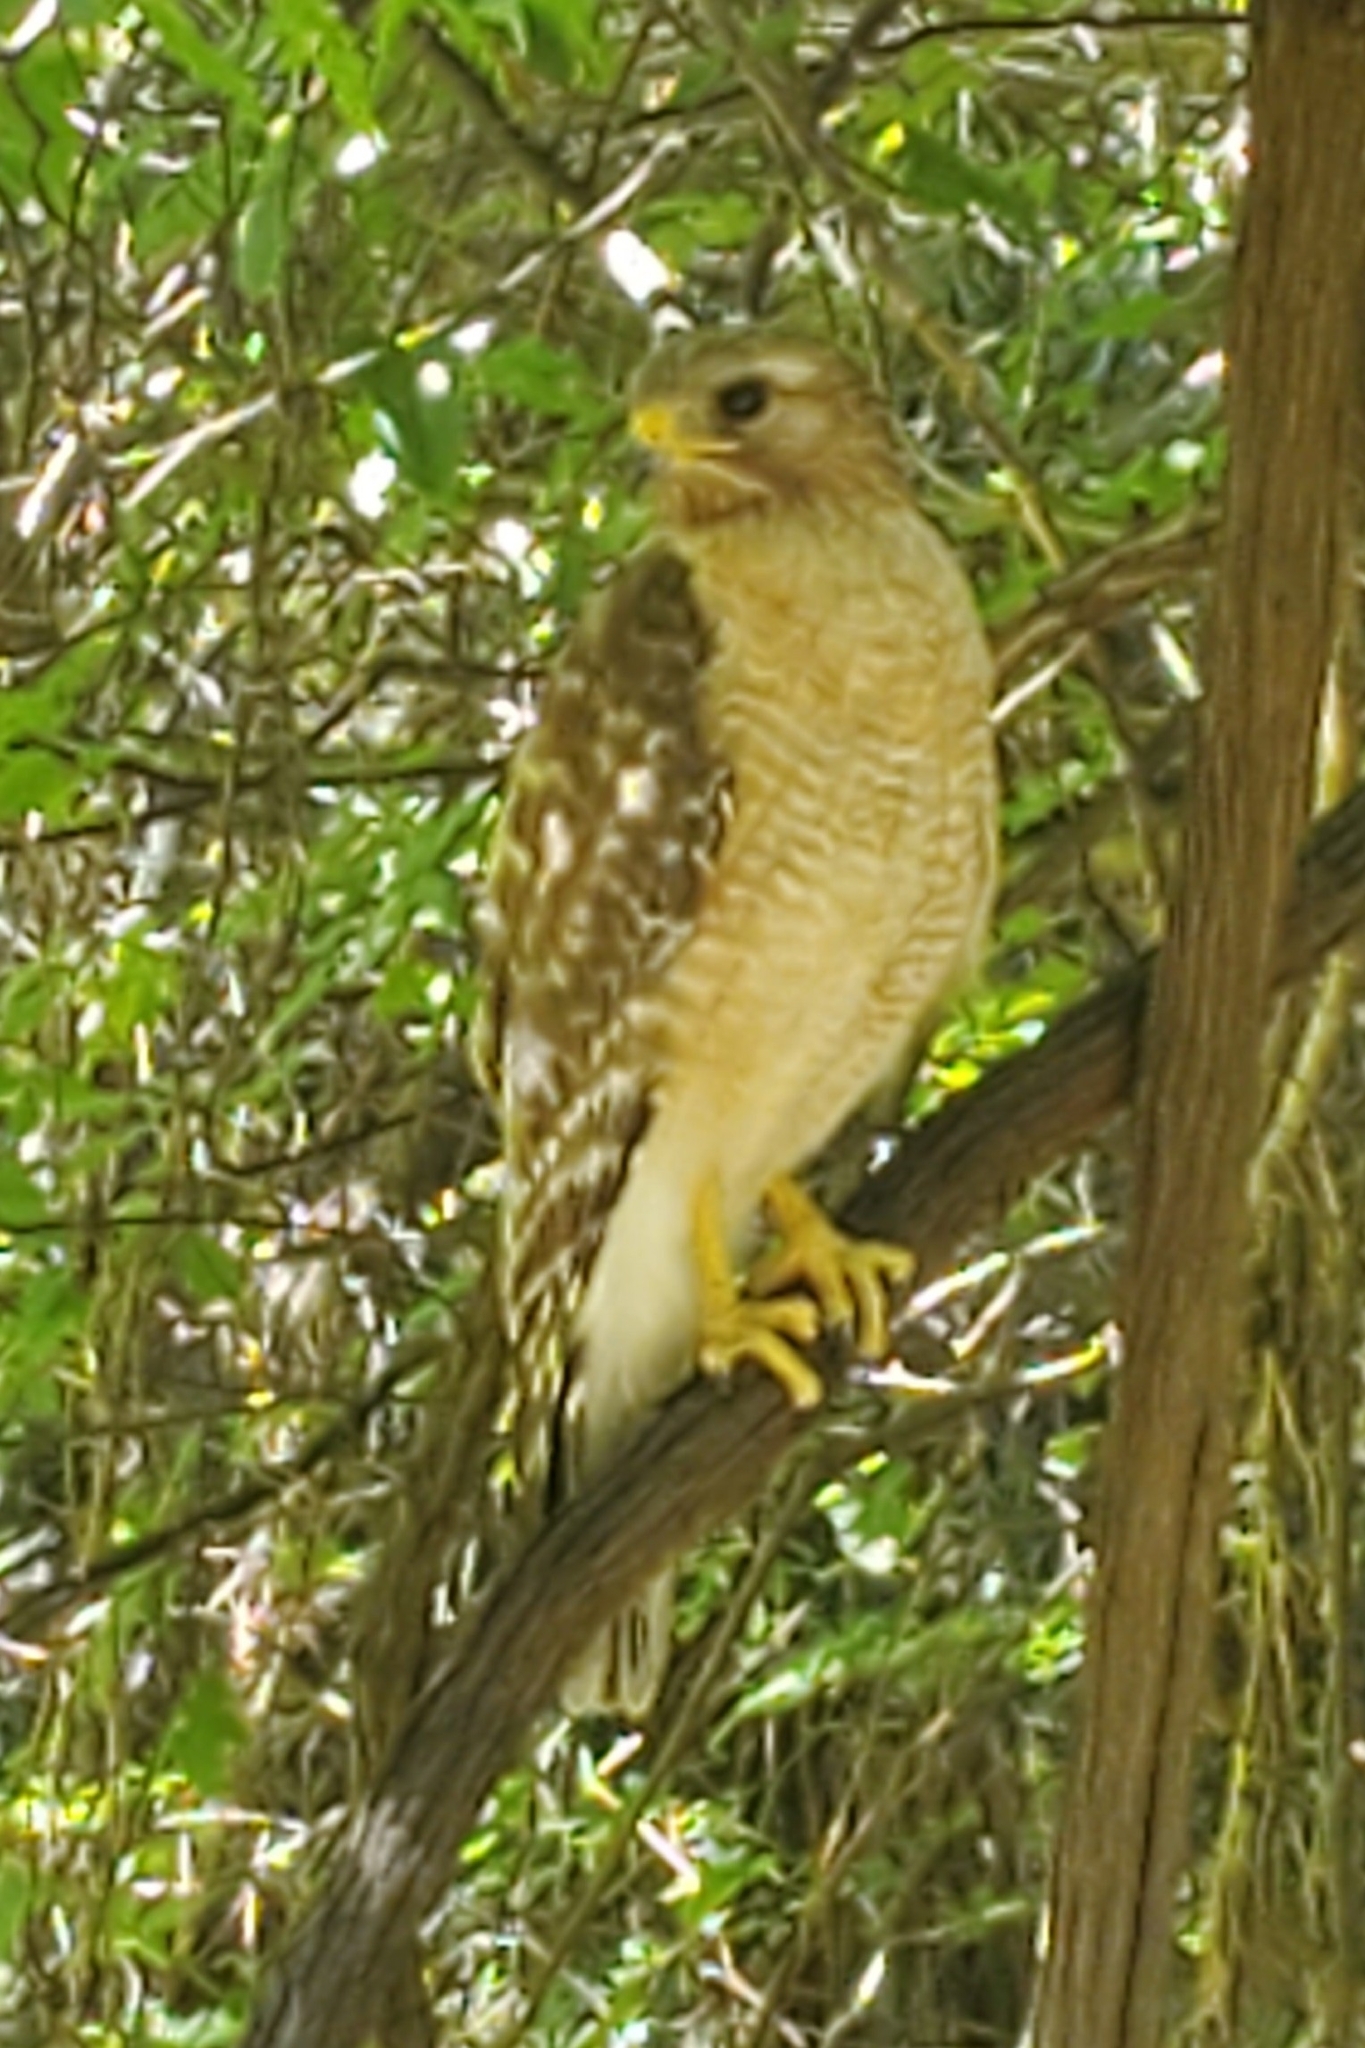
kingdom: Animalia
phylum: Chordata
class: Aves
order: Accipitriformes
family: Accipitridae
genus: Buteo
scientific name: Buteo lineatus
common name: Red-shouldered hawk
